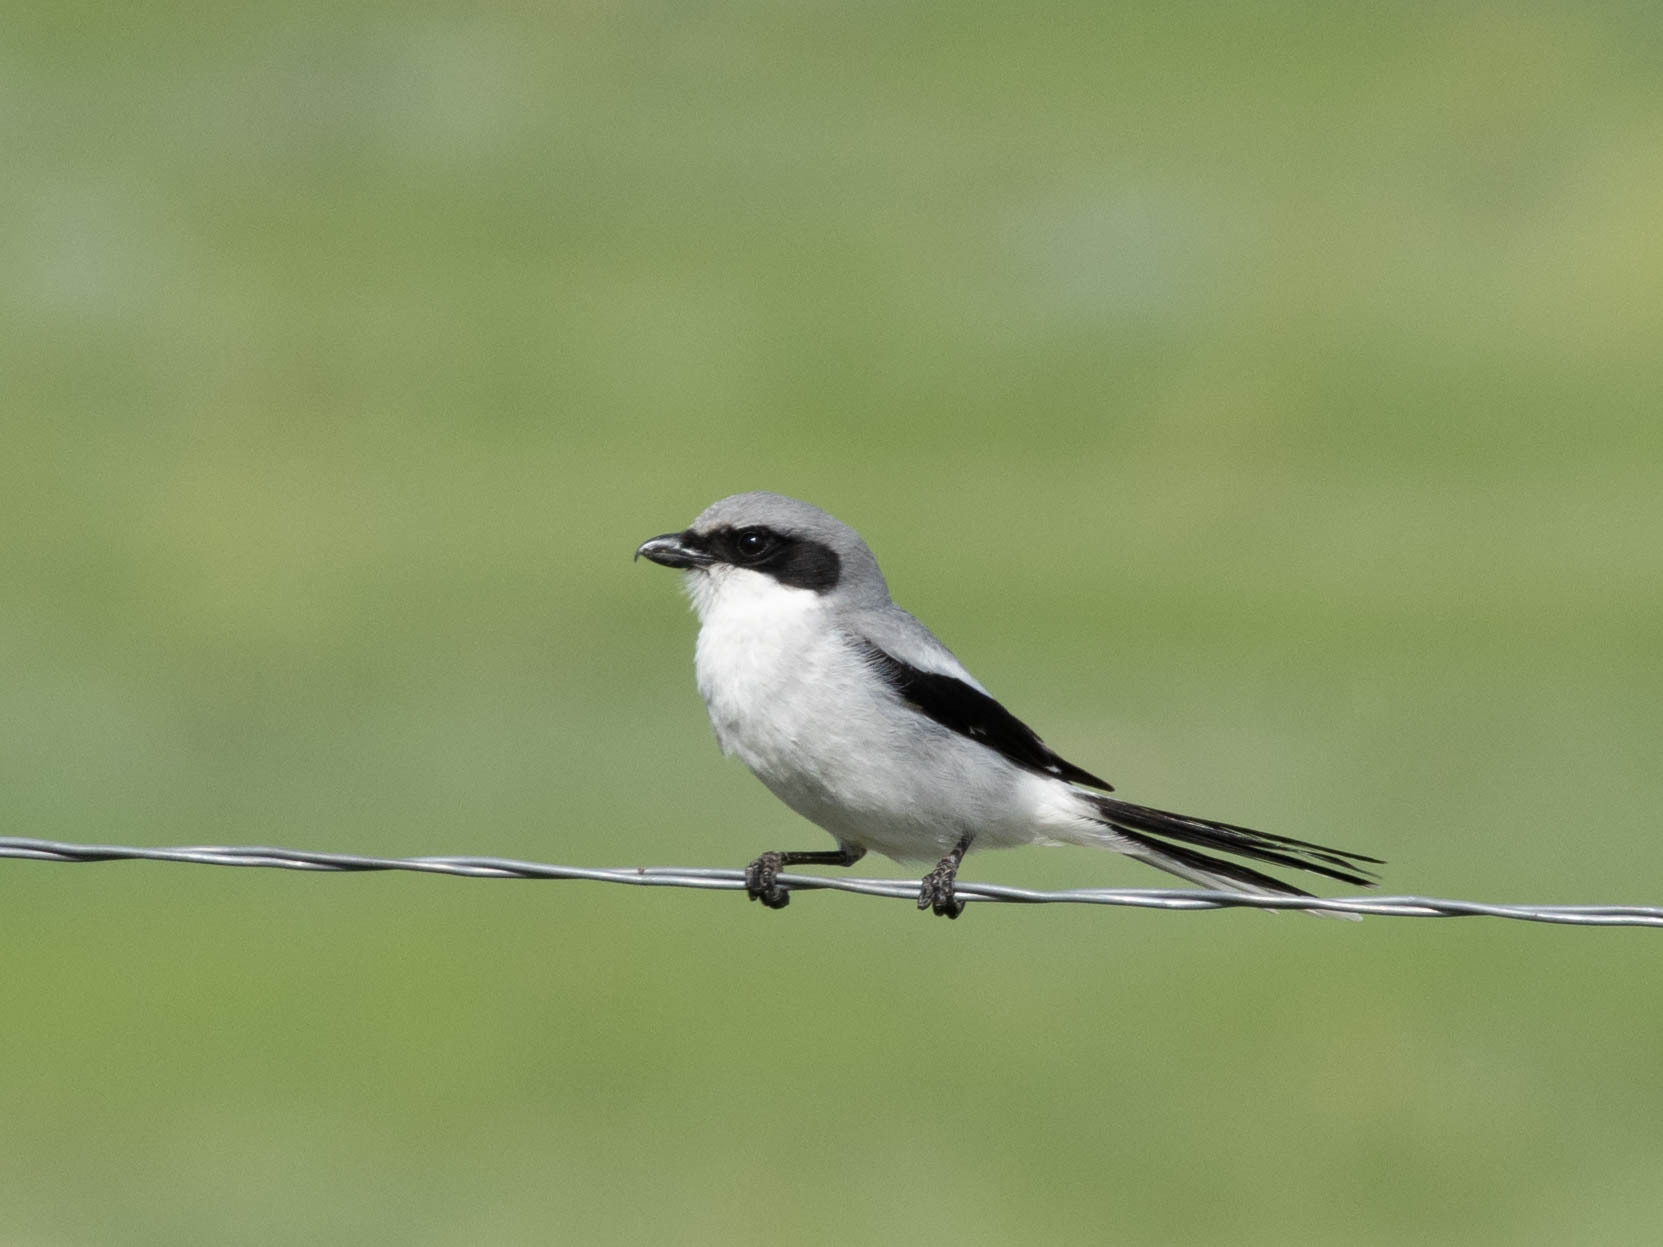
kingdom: Animalia
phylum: Chordata
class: Aves
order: Passeriformes
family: Laniidae
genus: Lanius
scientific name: Lanius ludovicianus
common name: Loggerhead shrike
